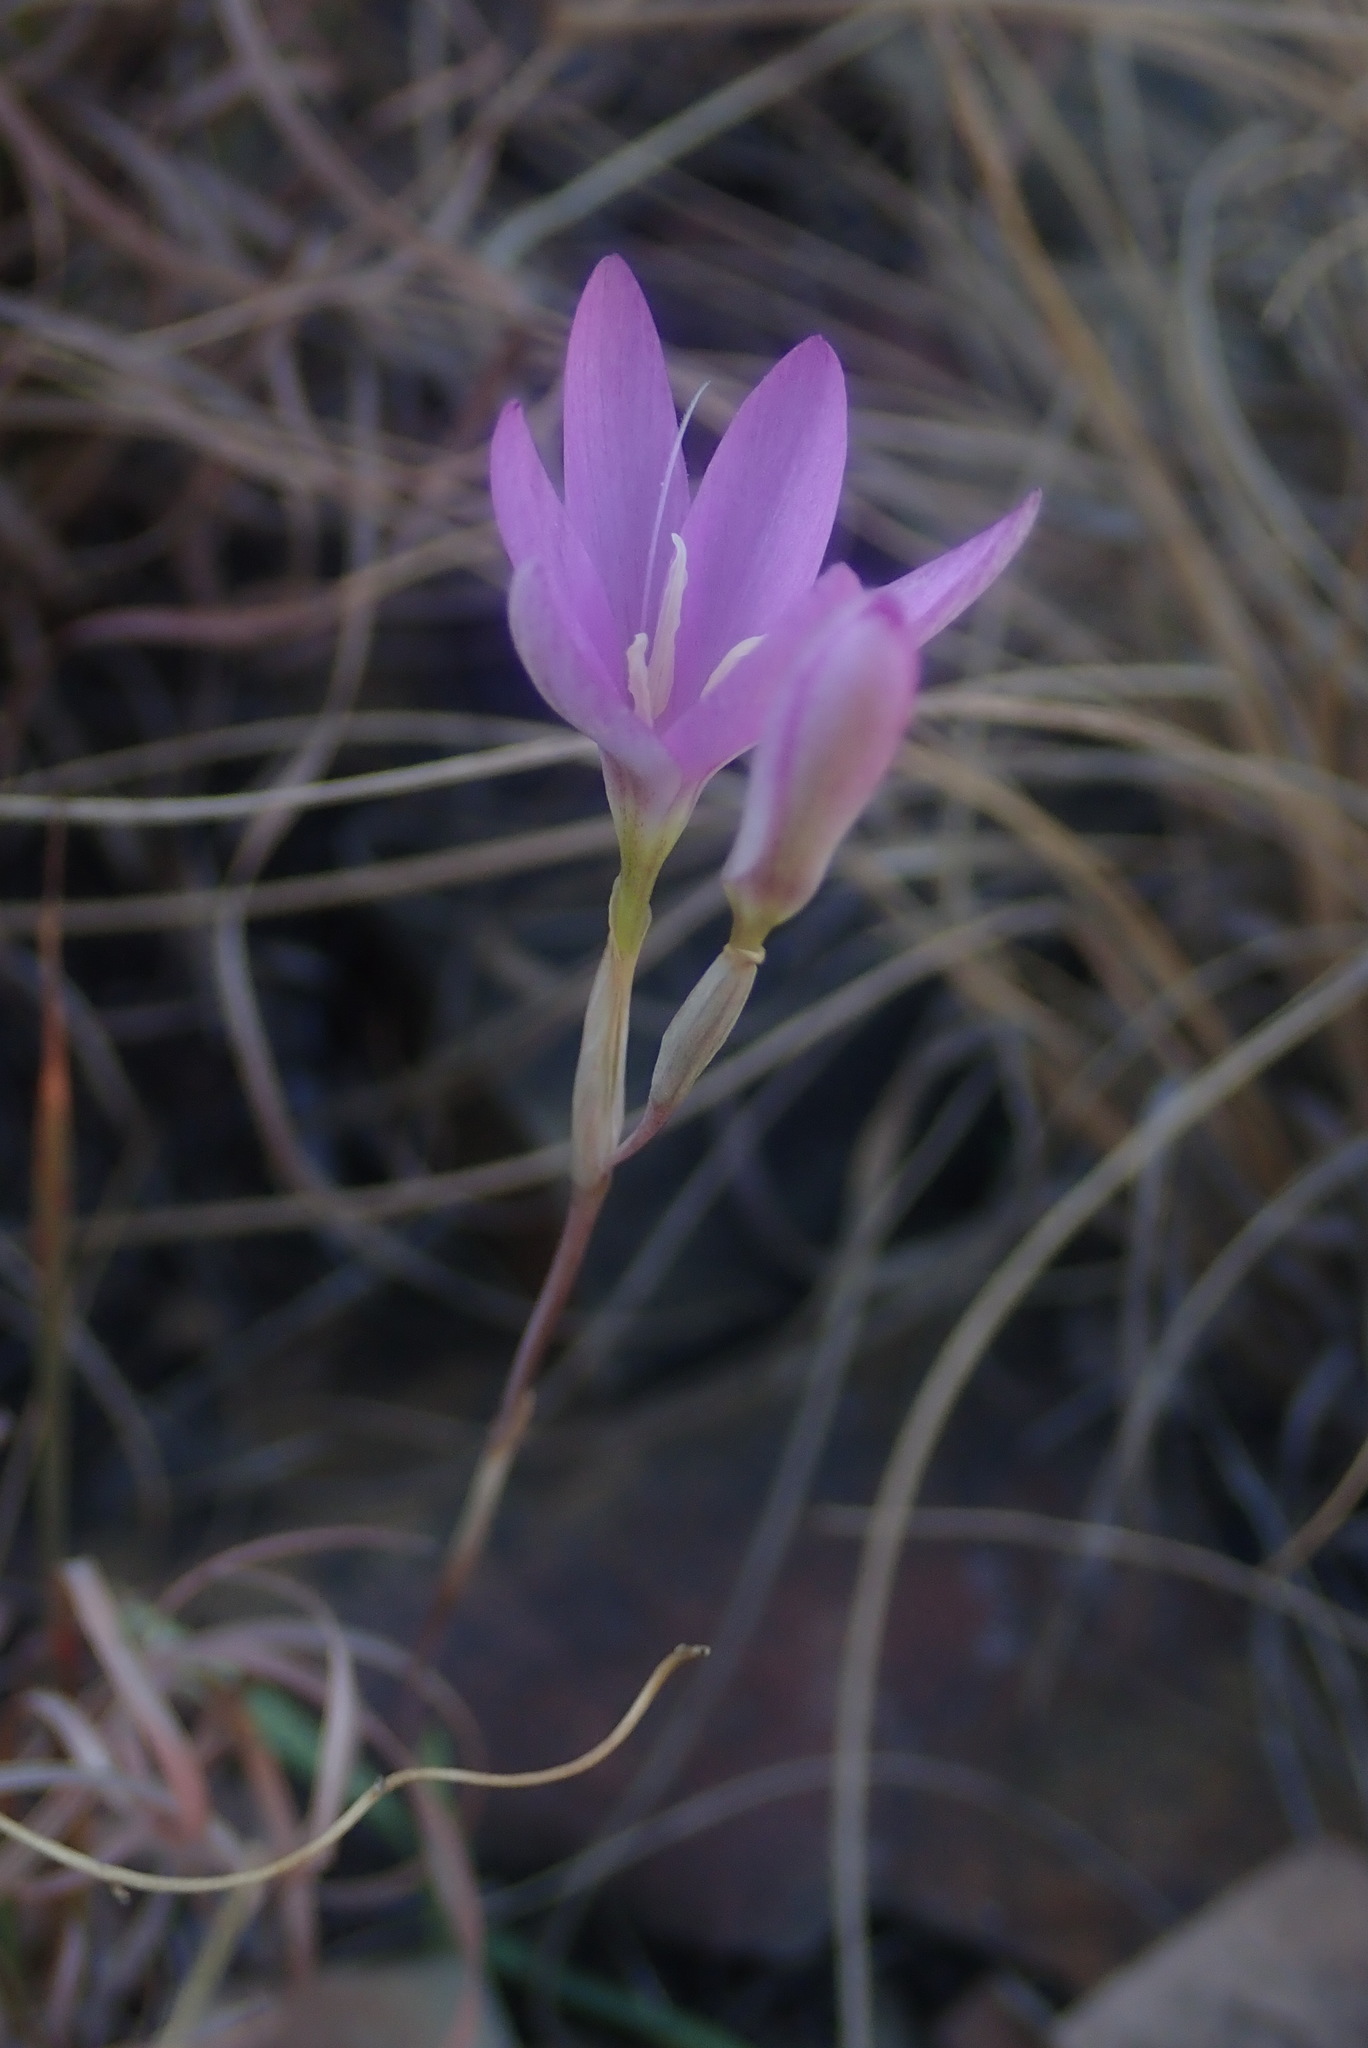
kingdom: Plantae
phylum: Tracheophyta
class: Liliopsida
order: Asparagales
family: Iridaceae
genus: Hesperantha
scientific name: Hesperantha baurii
